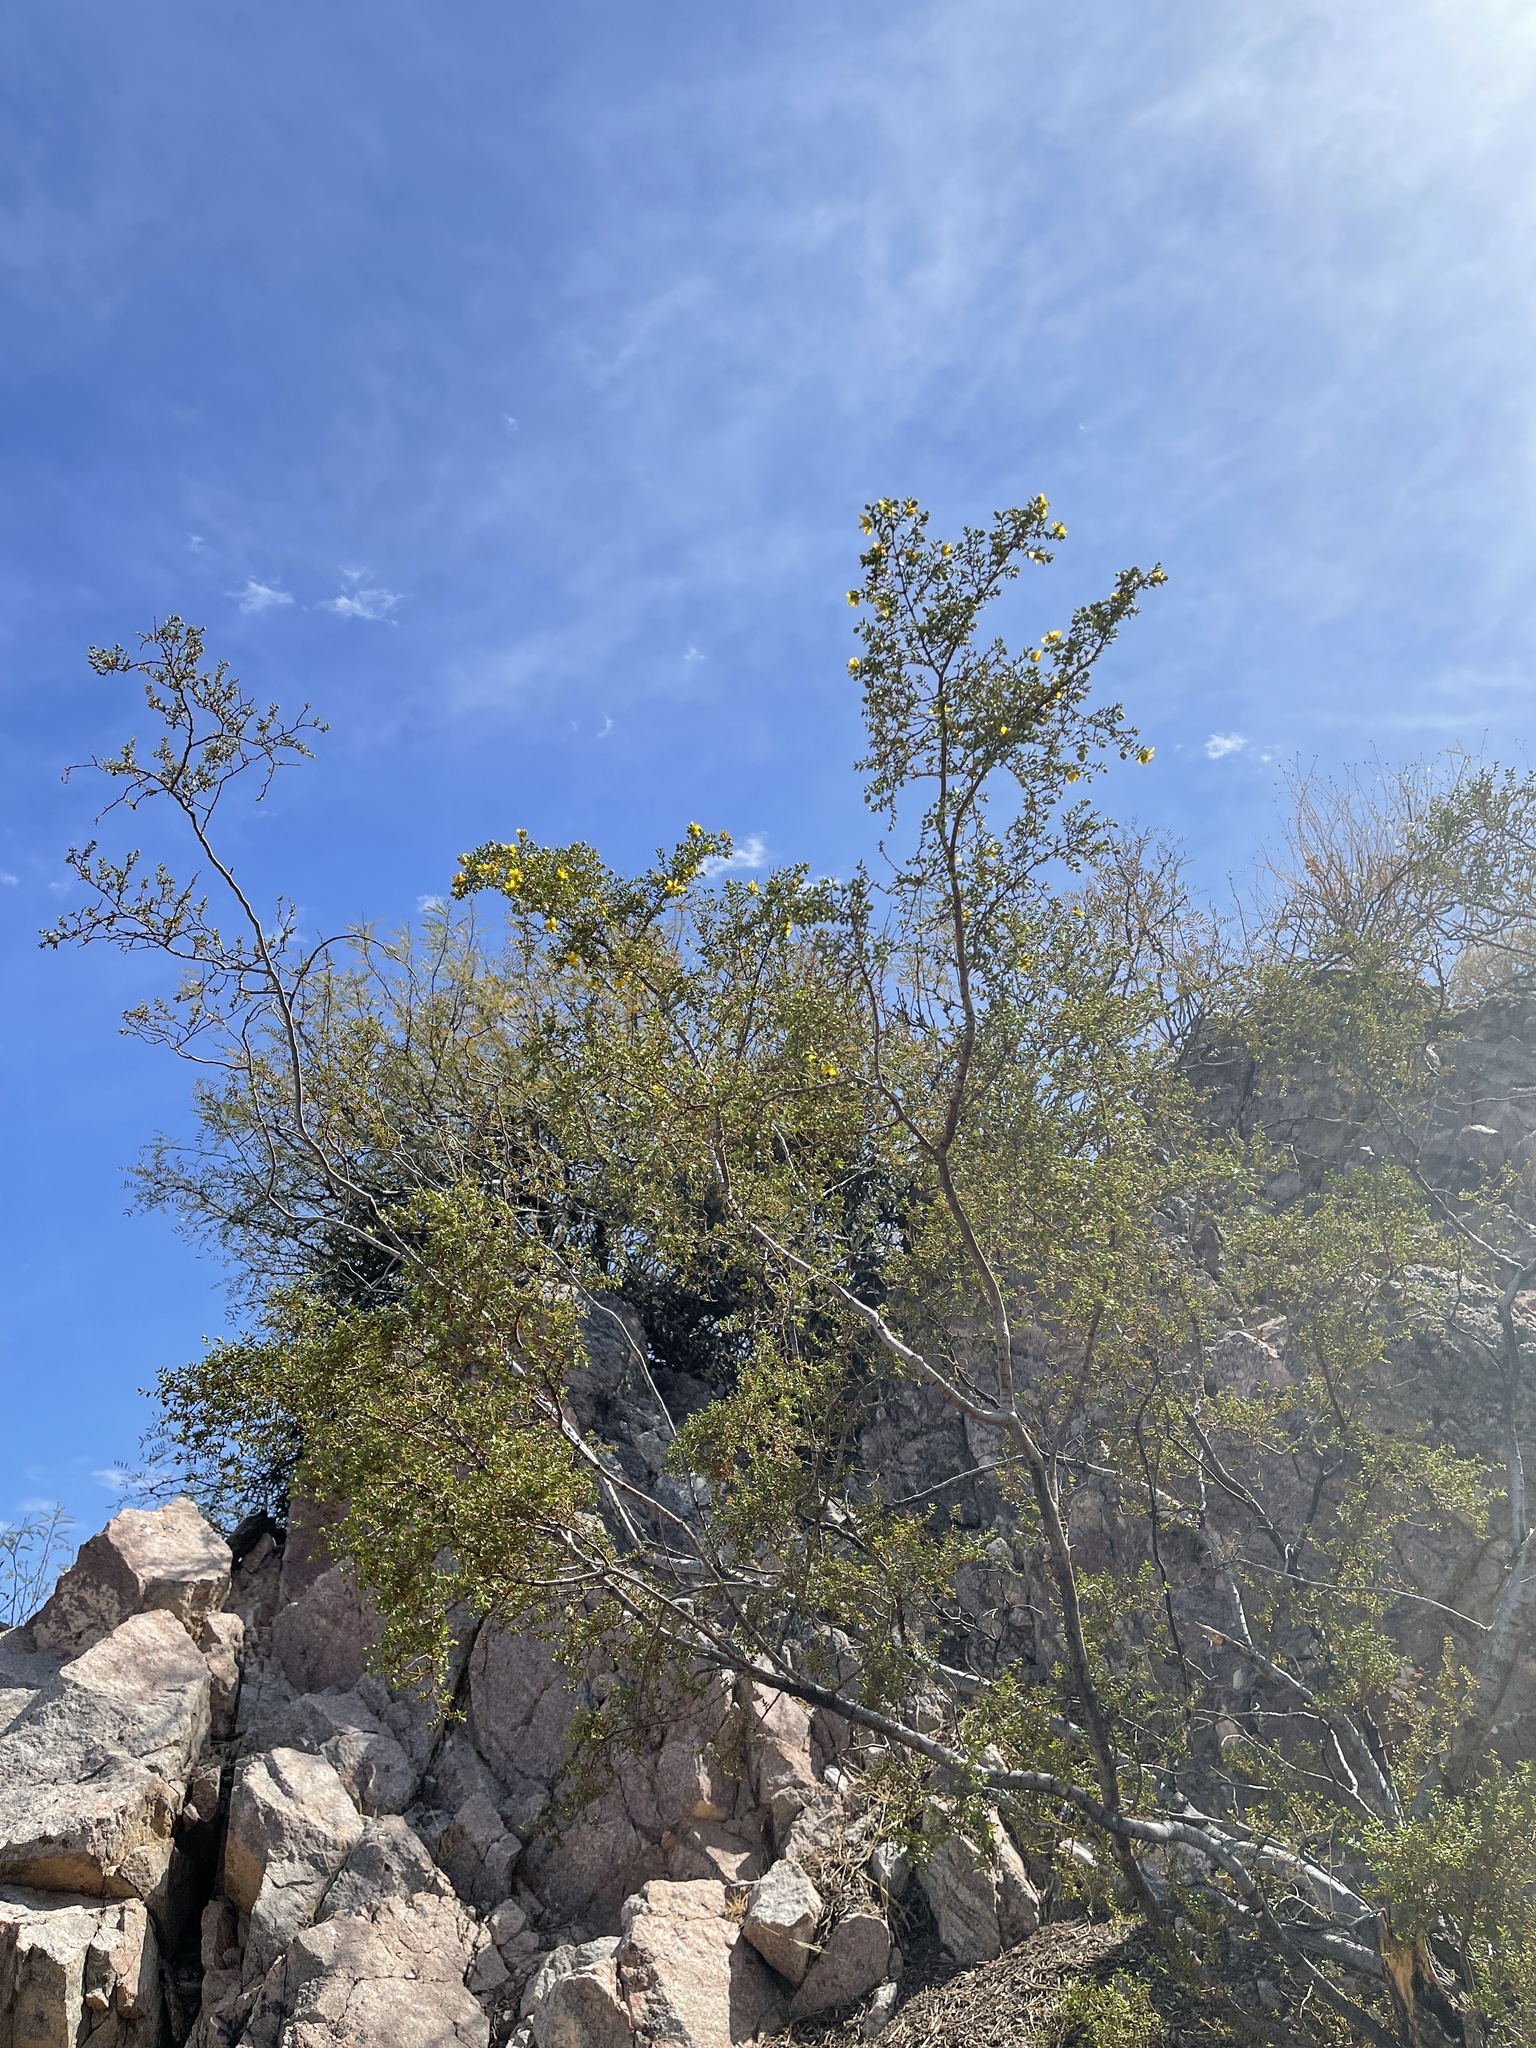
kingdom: Plantae
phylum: Tracheophyta
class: Magnoliopsida
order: Zygophyllales
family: Zygophyllaceae
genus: Larrea
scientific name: Larrea tridentata
